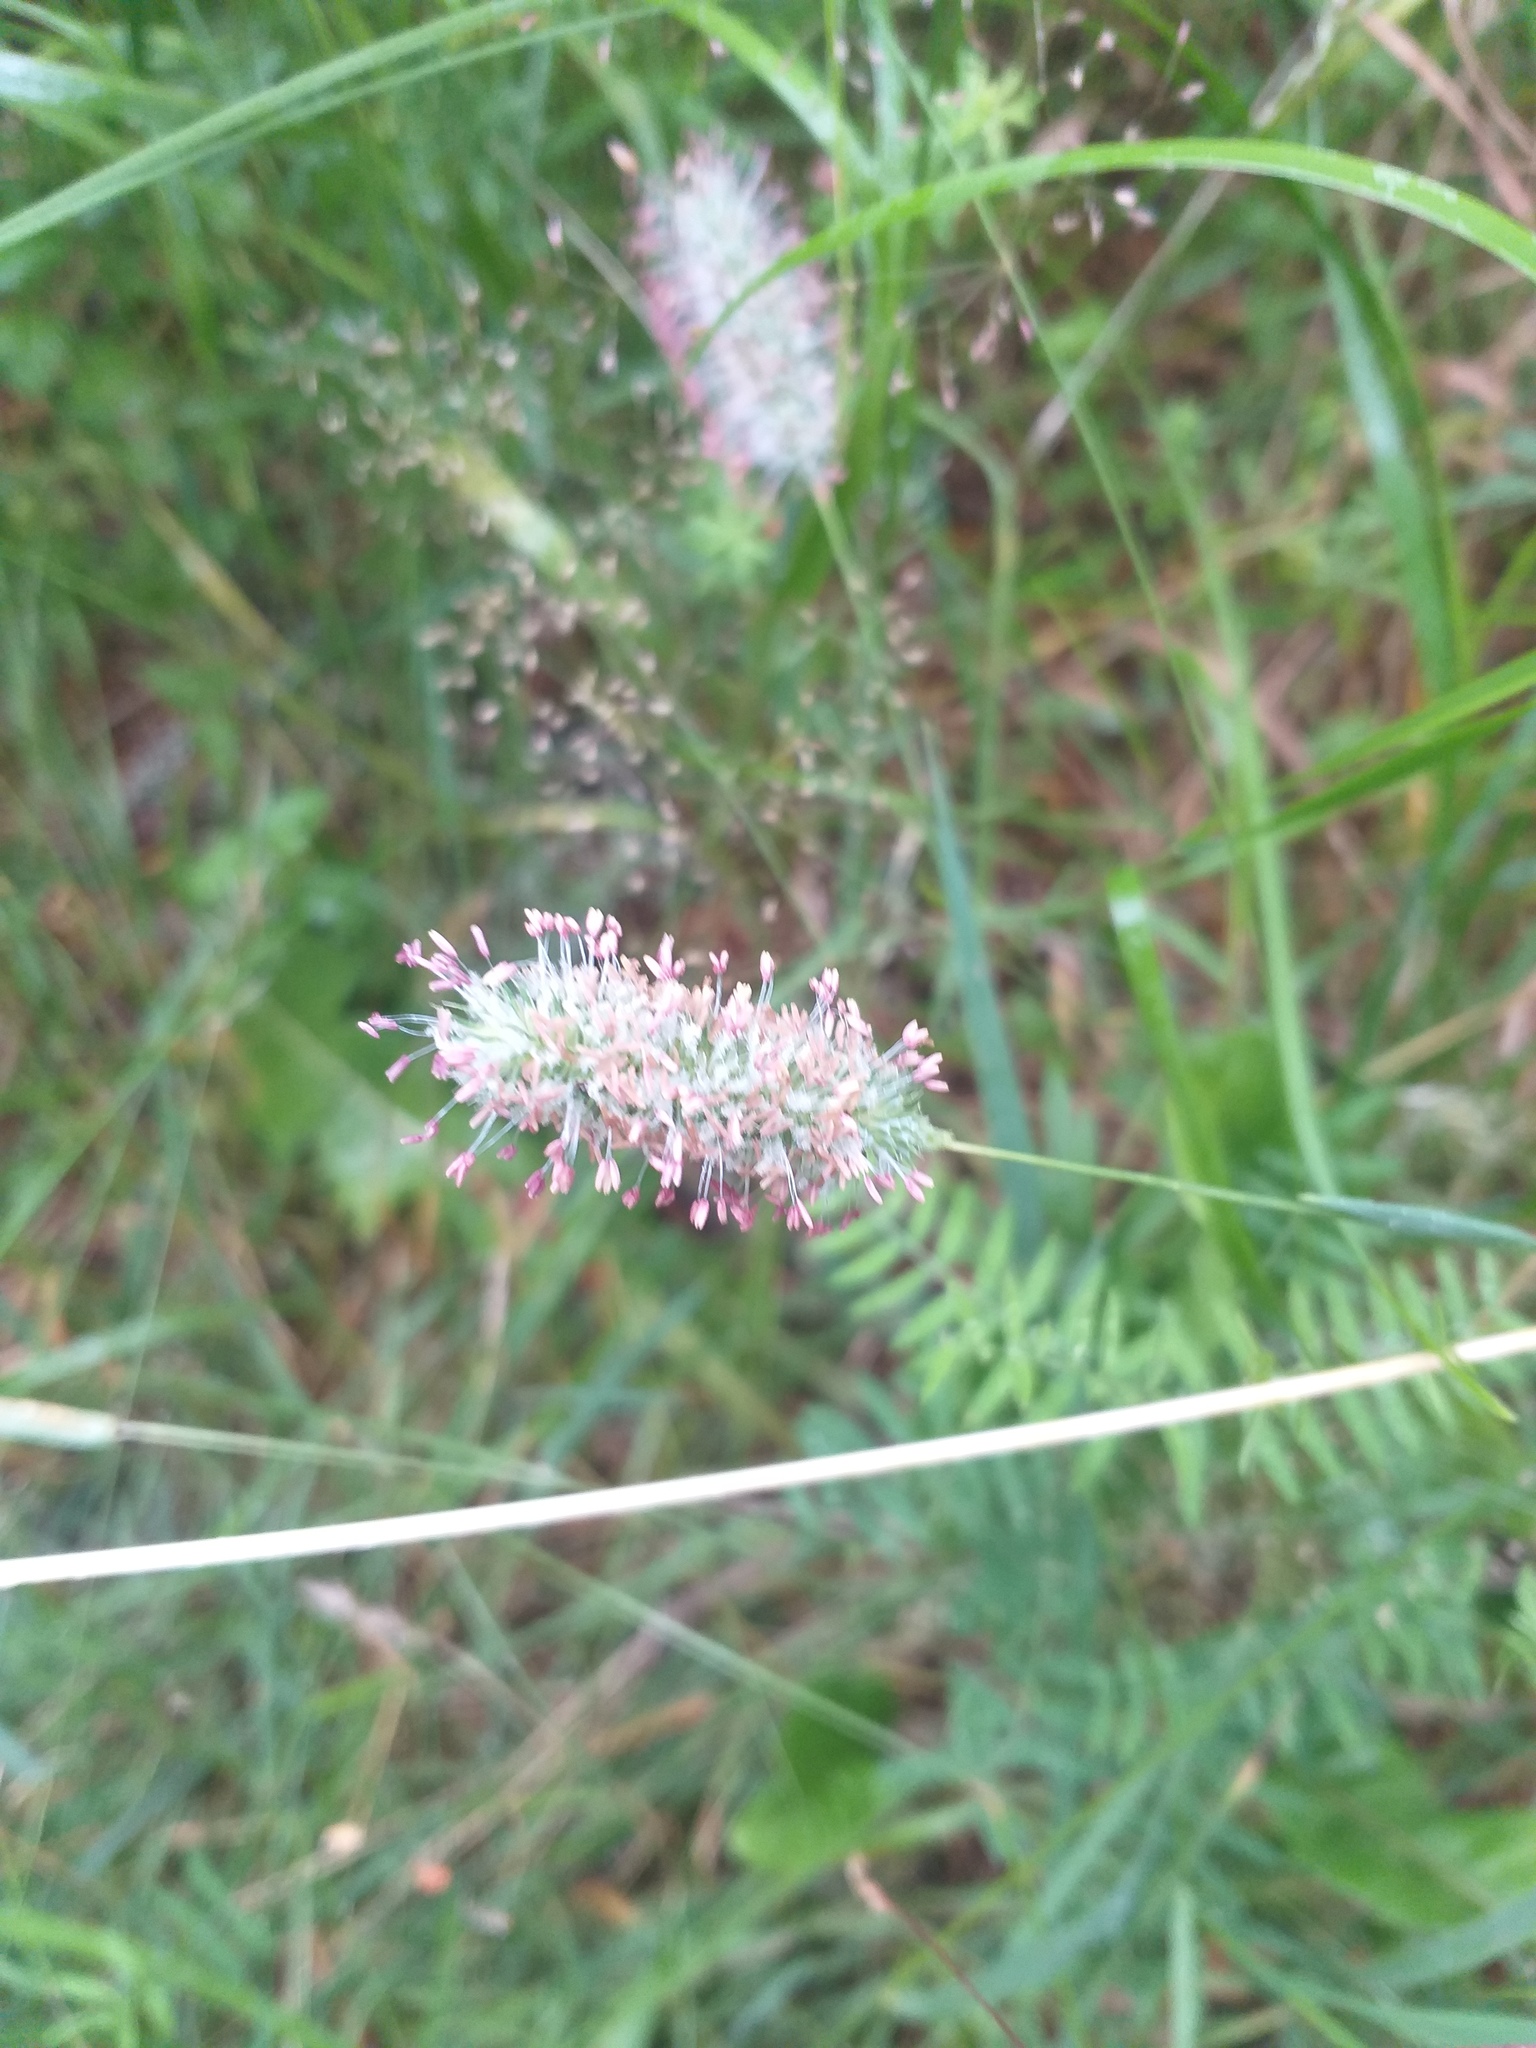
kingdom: Plantae
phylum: Tracheophyta
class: Liliopsida
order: Poales
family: Poaceae
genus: Phleum
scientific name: Phleum pratense
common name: Timothy grass
